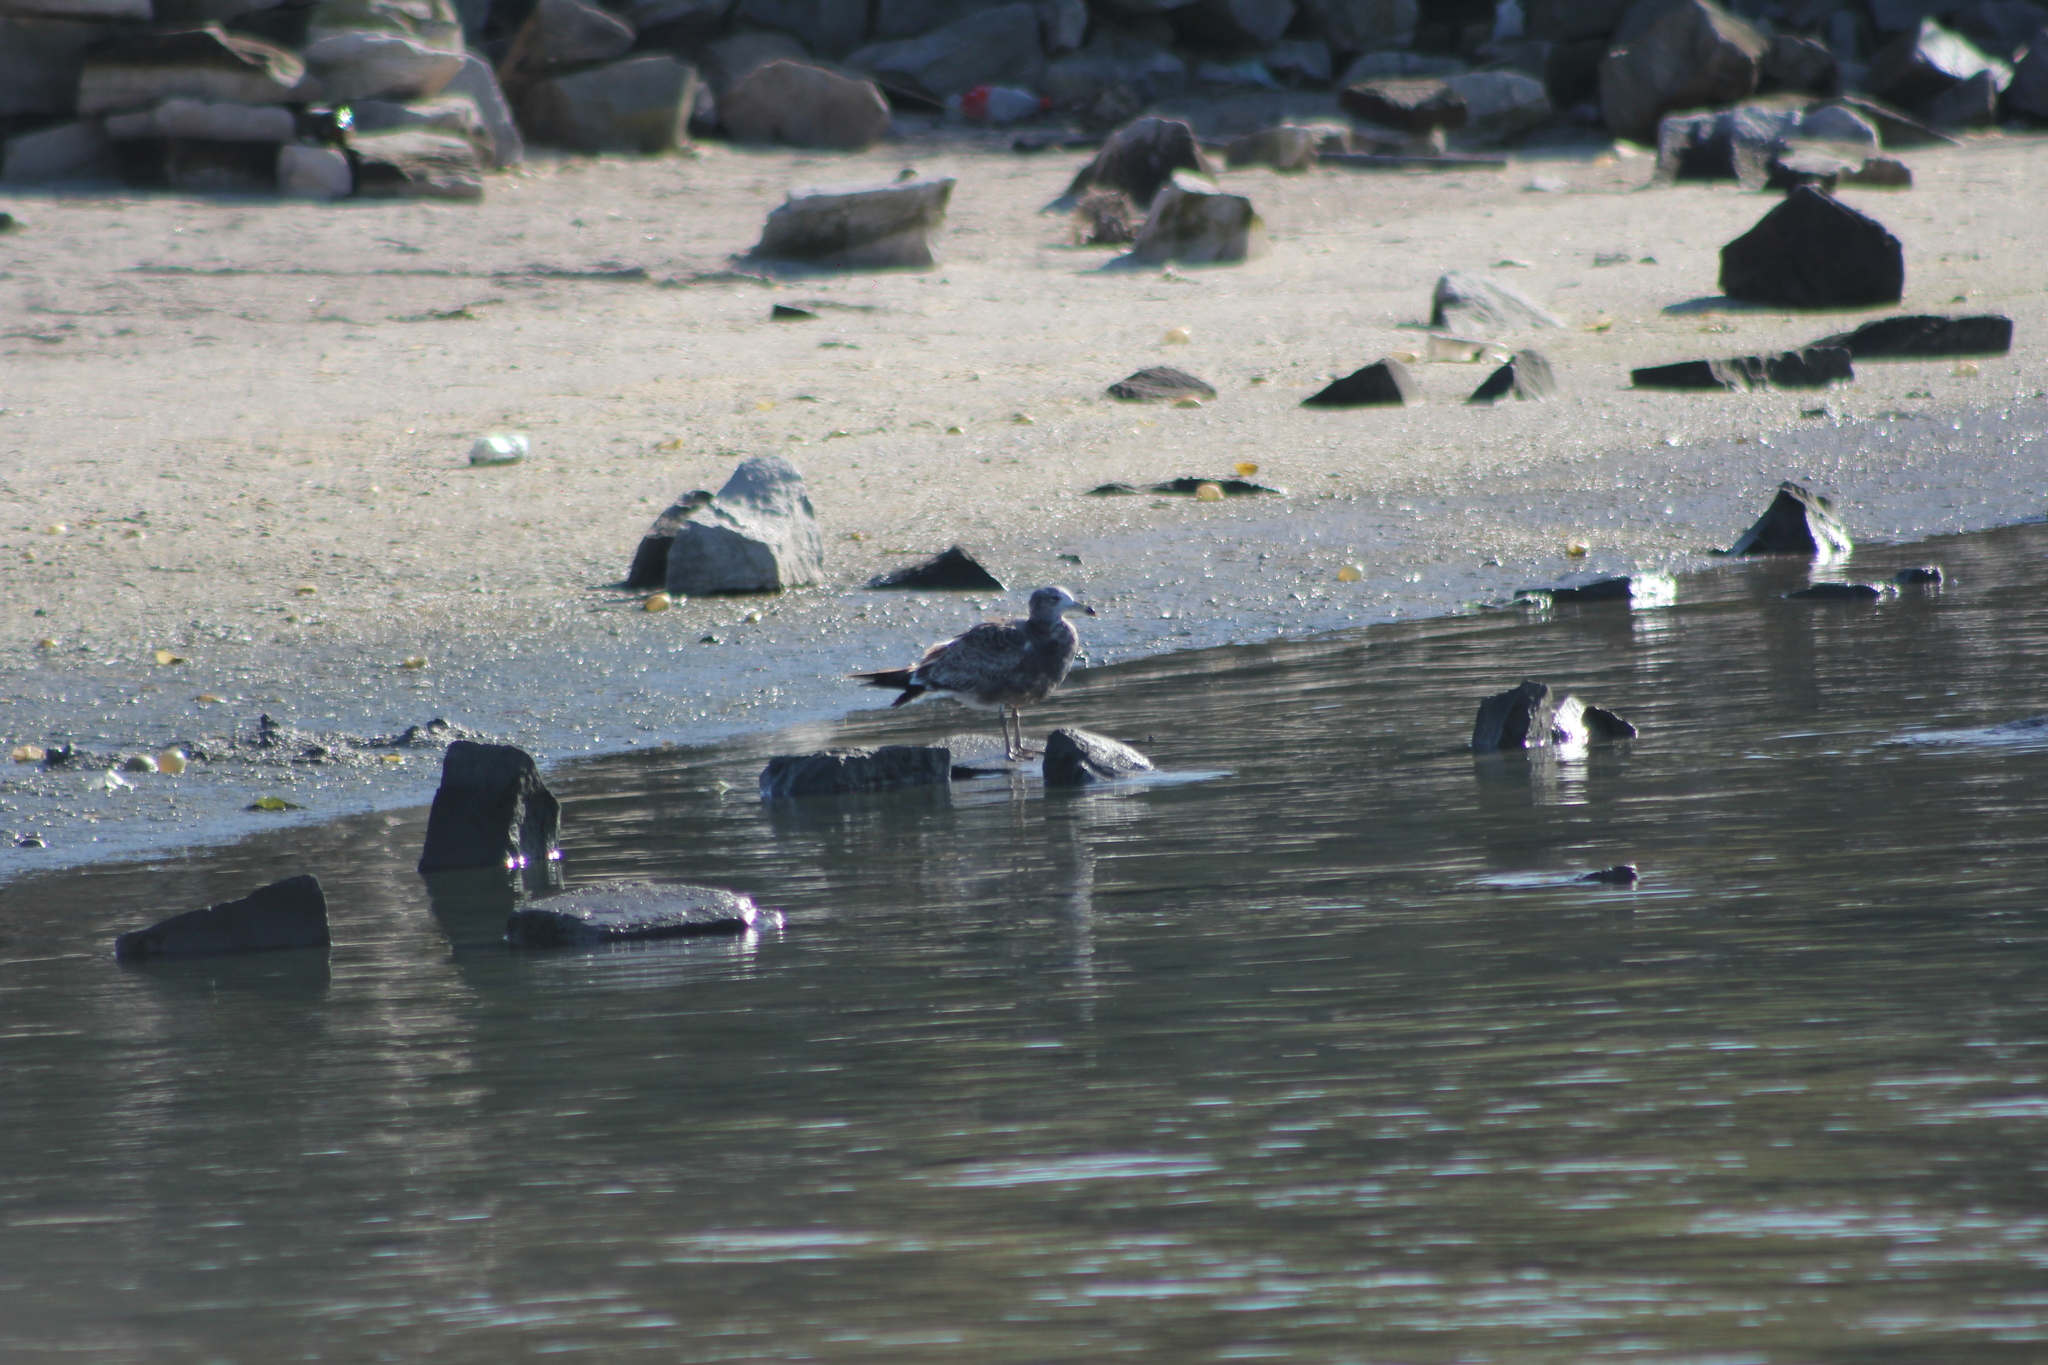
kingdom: Animalia
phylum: Chordata
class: Aves
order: Charadriiformes
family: Laridae
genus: Larus
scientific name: Larus atlanticus
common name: Olrog's gull
